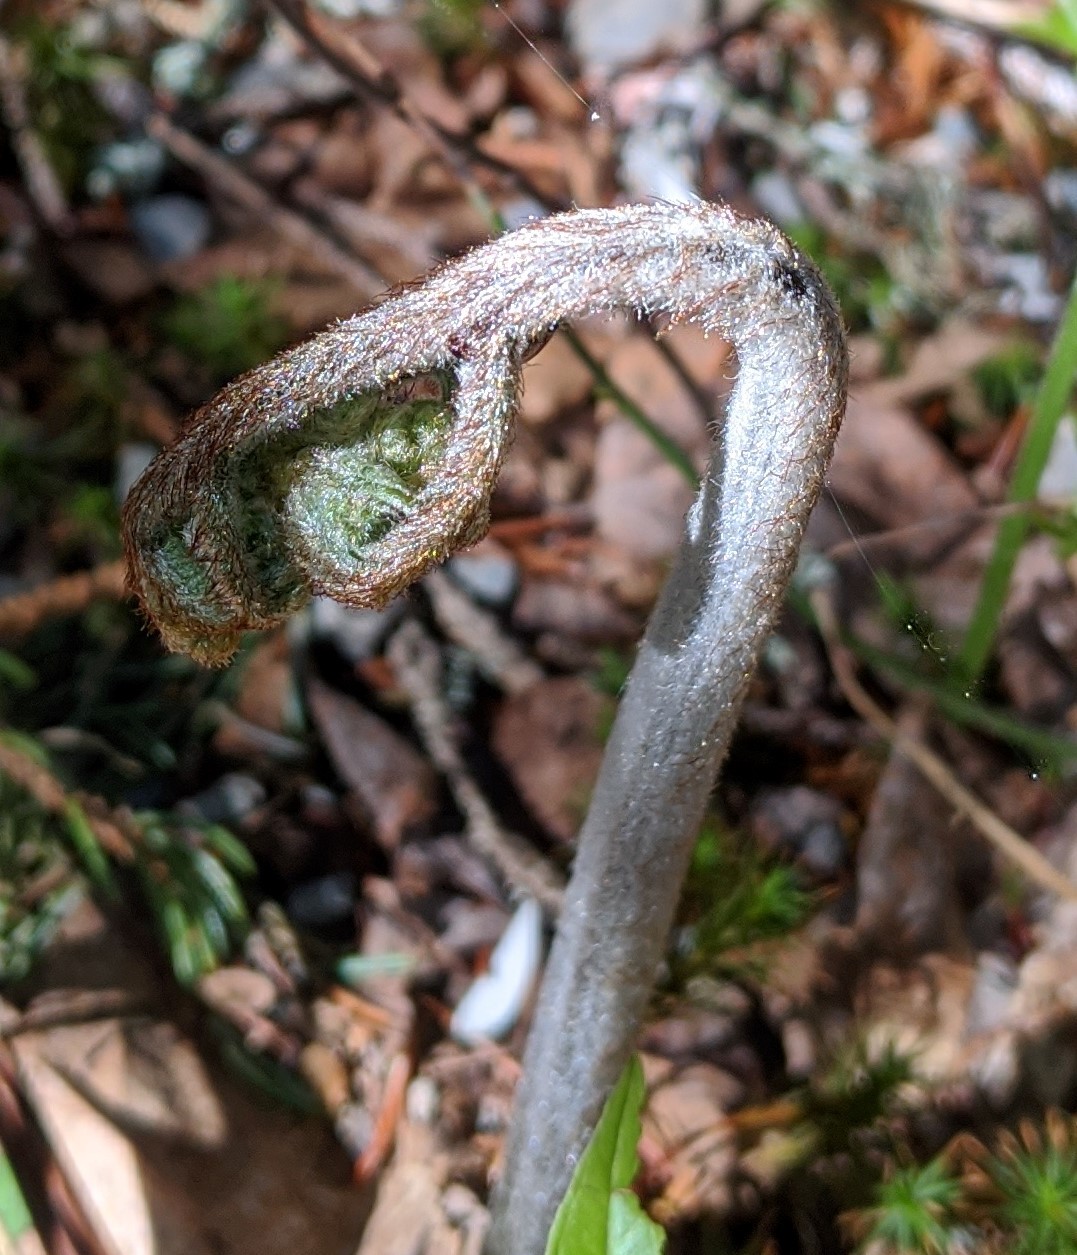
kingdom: Plantae
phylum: Tracheophyta
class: Polypodiopsida
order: Polypodiales
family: Dennstaedtiaceae
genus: Pteridium
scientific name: Pteridium aquilinum
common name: Bracken
